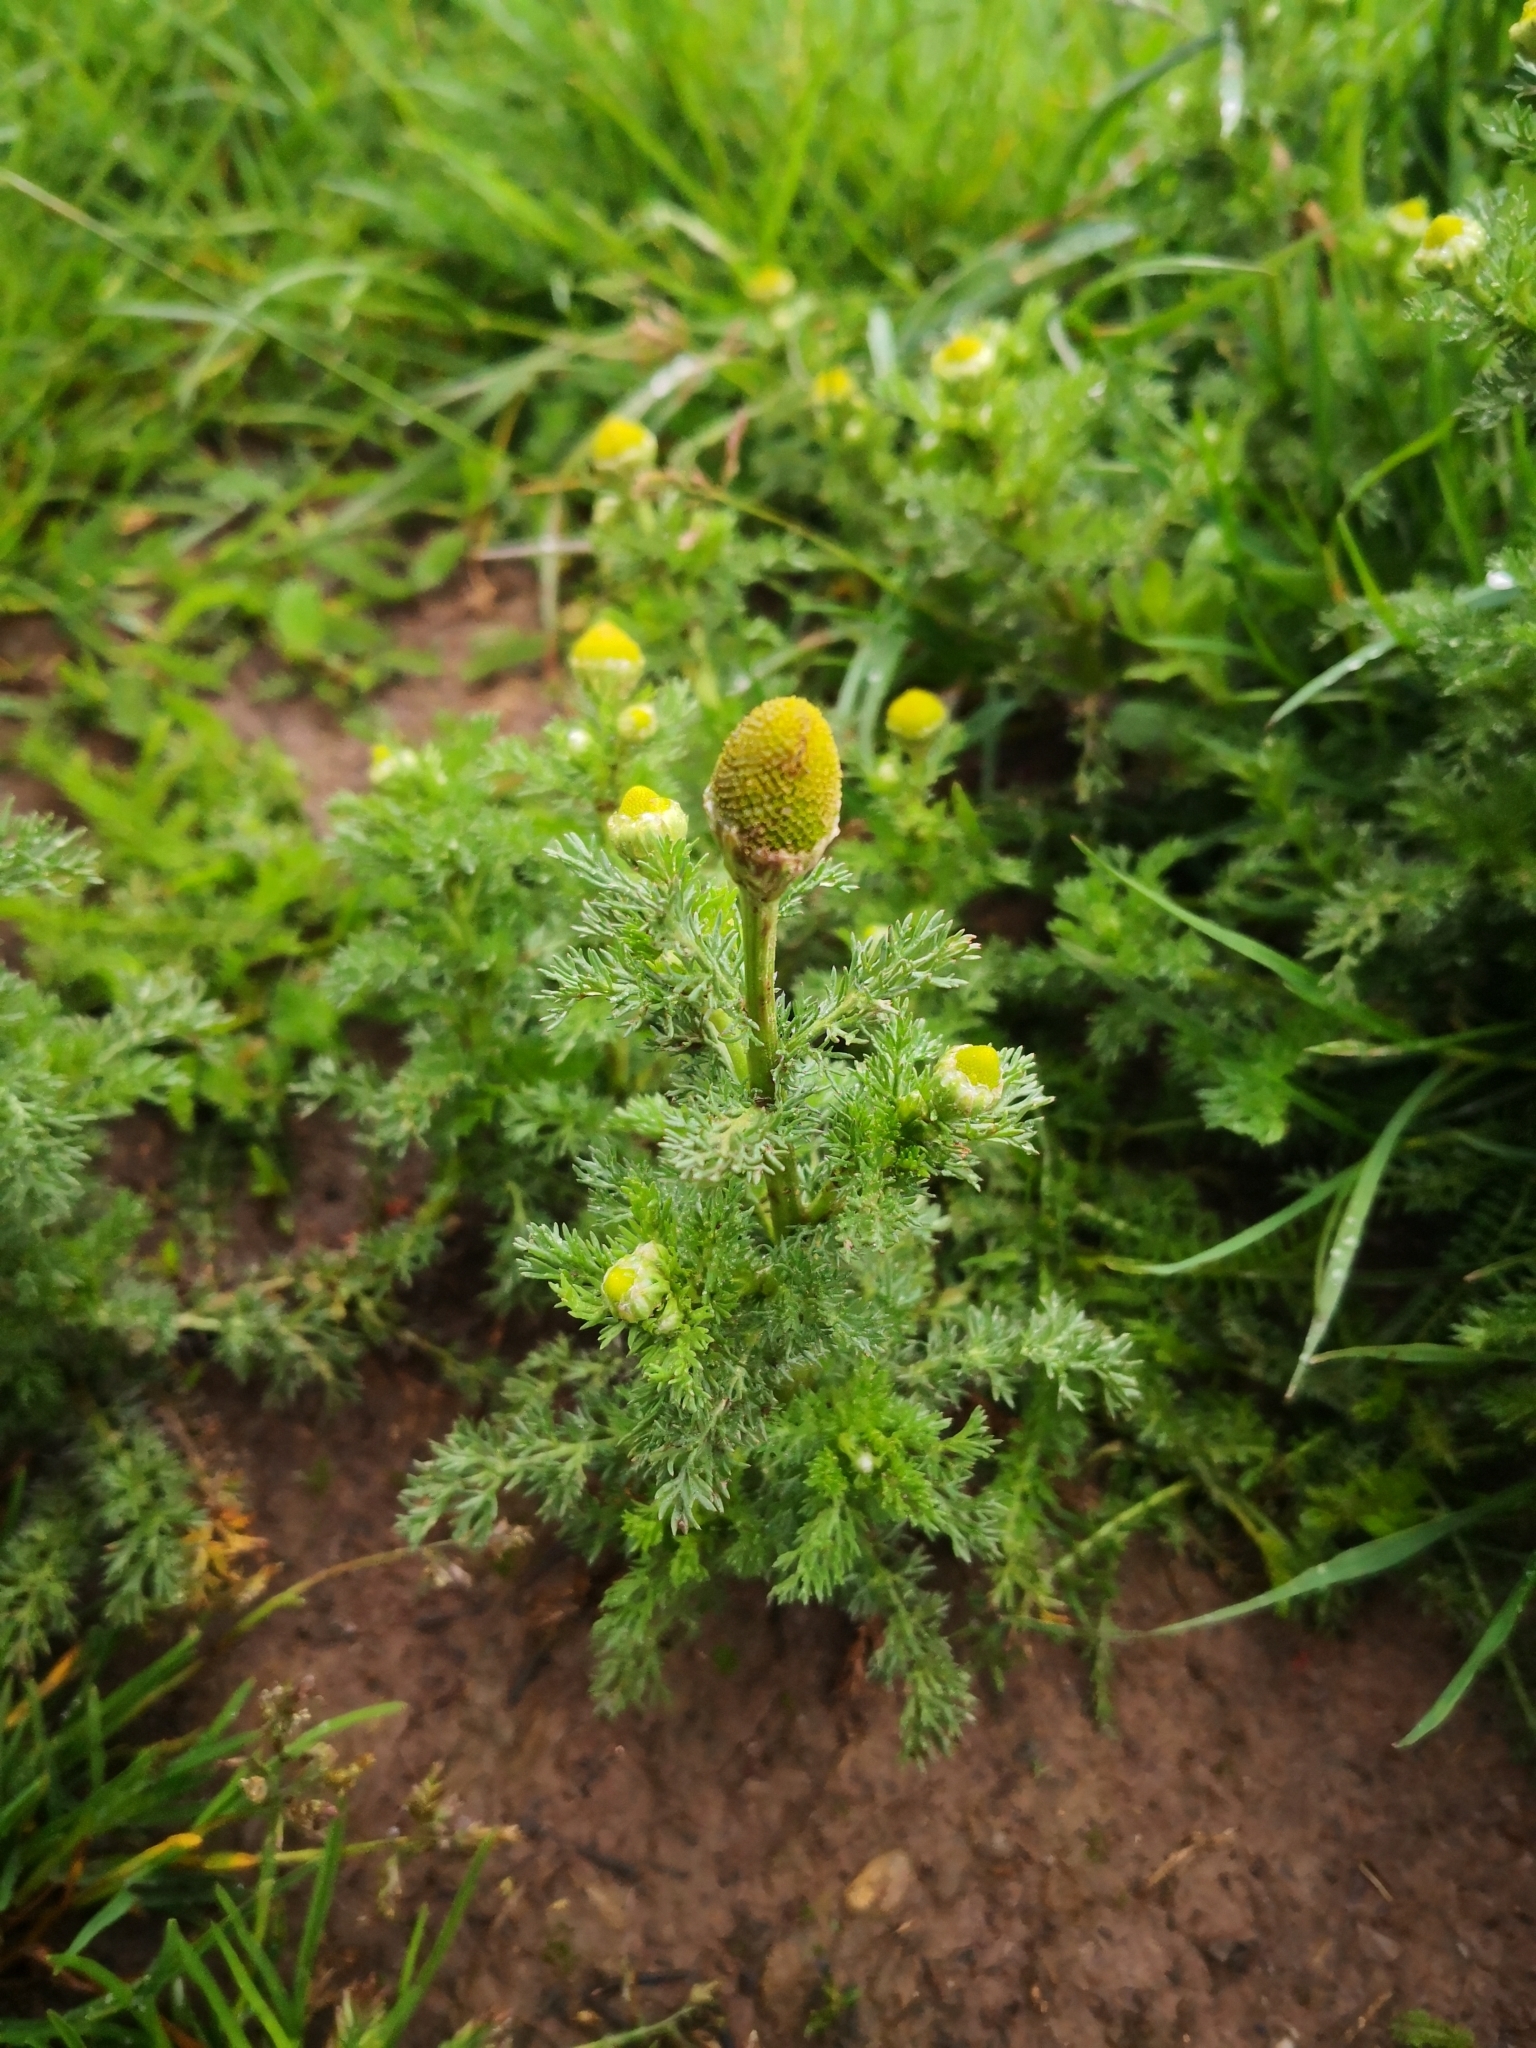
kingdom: Plantae
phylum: Tracheophyta
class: Magnoliopsida
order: Asterales
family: Asteraceae
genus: Matricaria
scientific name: Matricaria discoidea
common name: Disc mayweed
